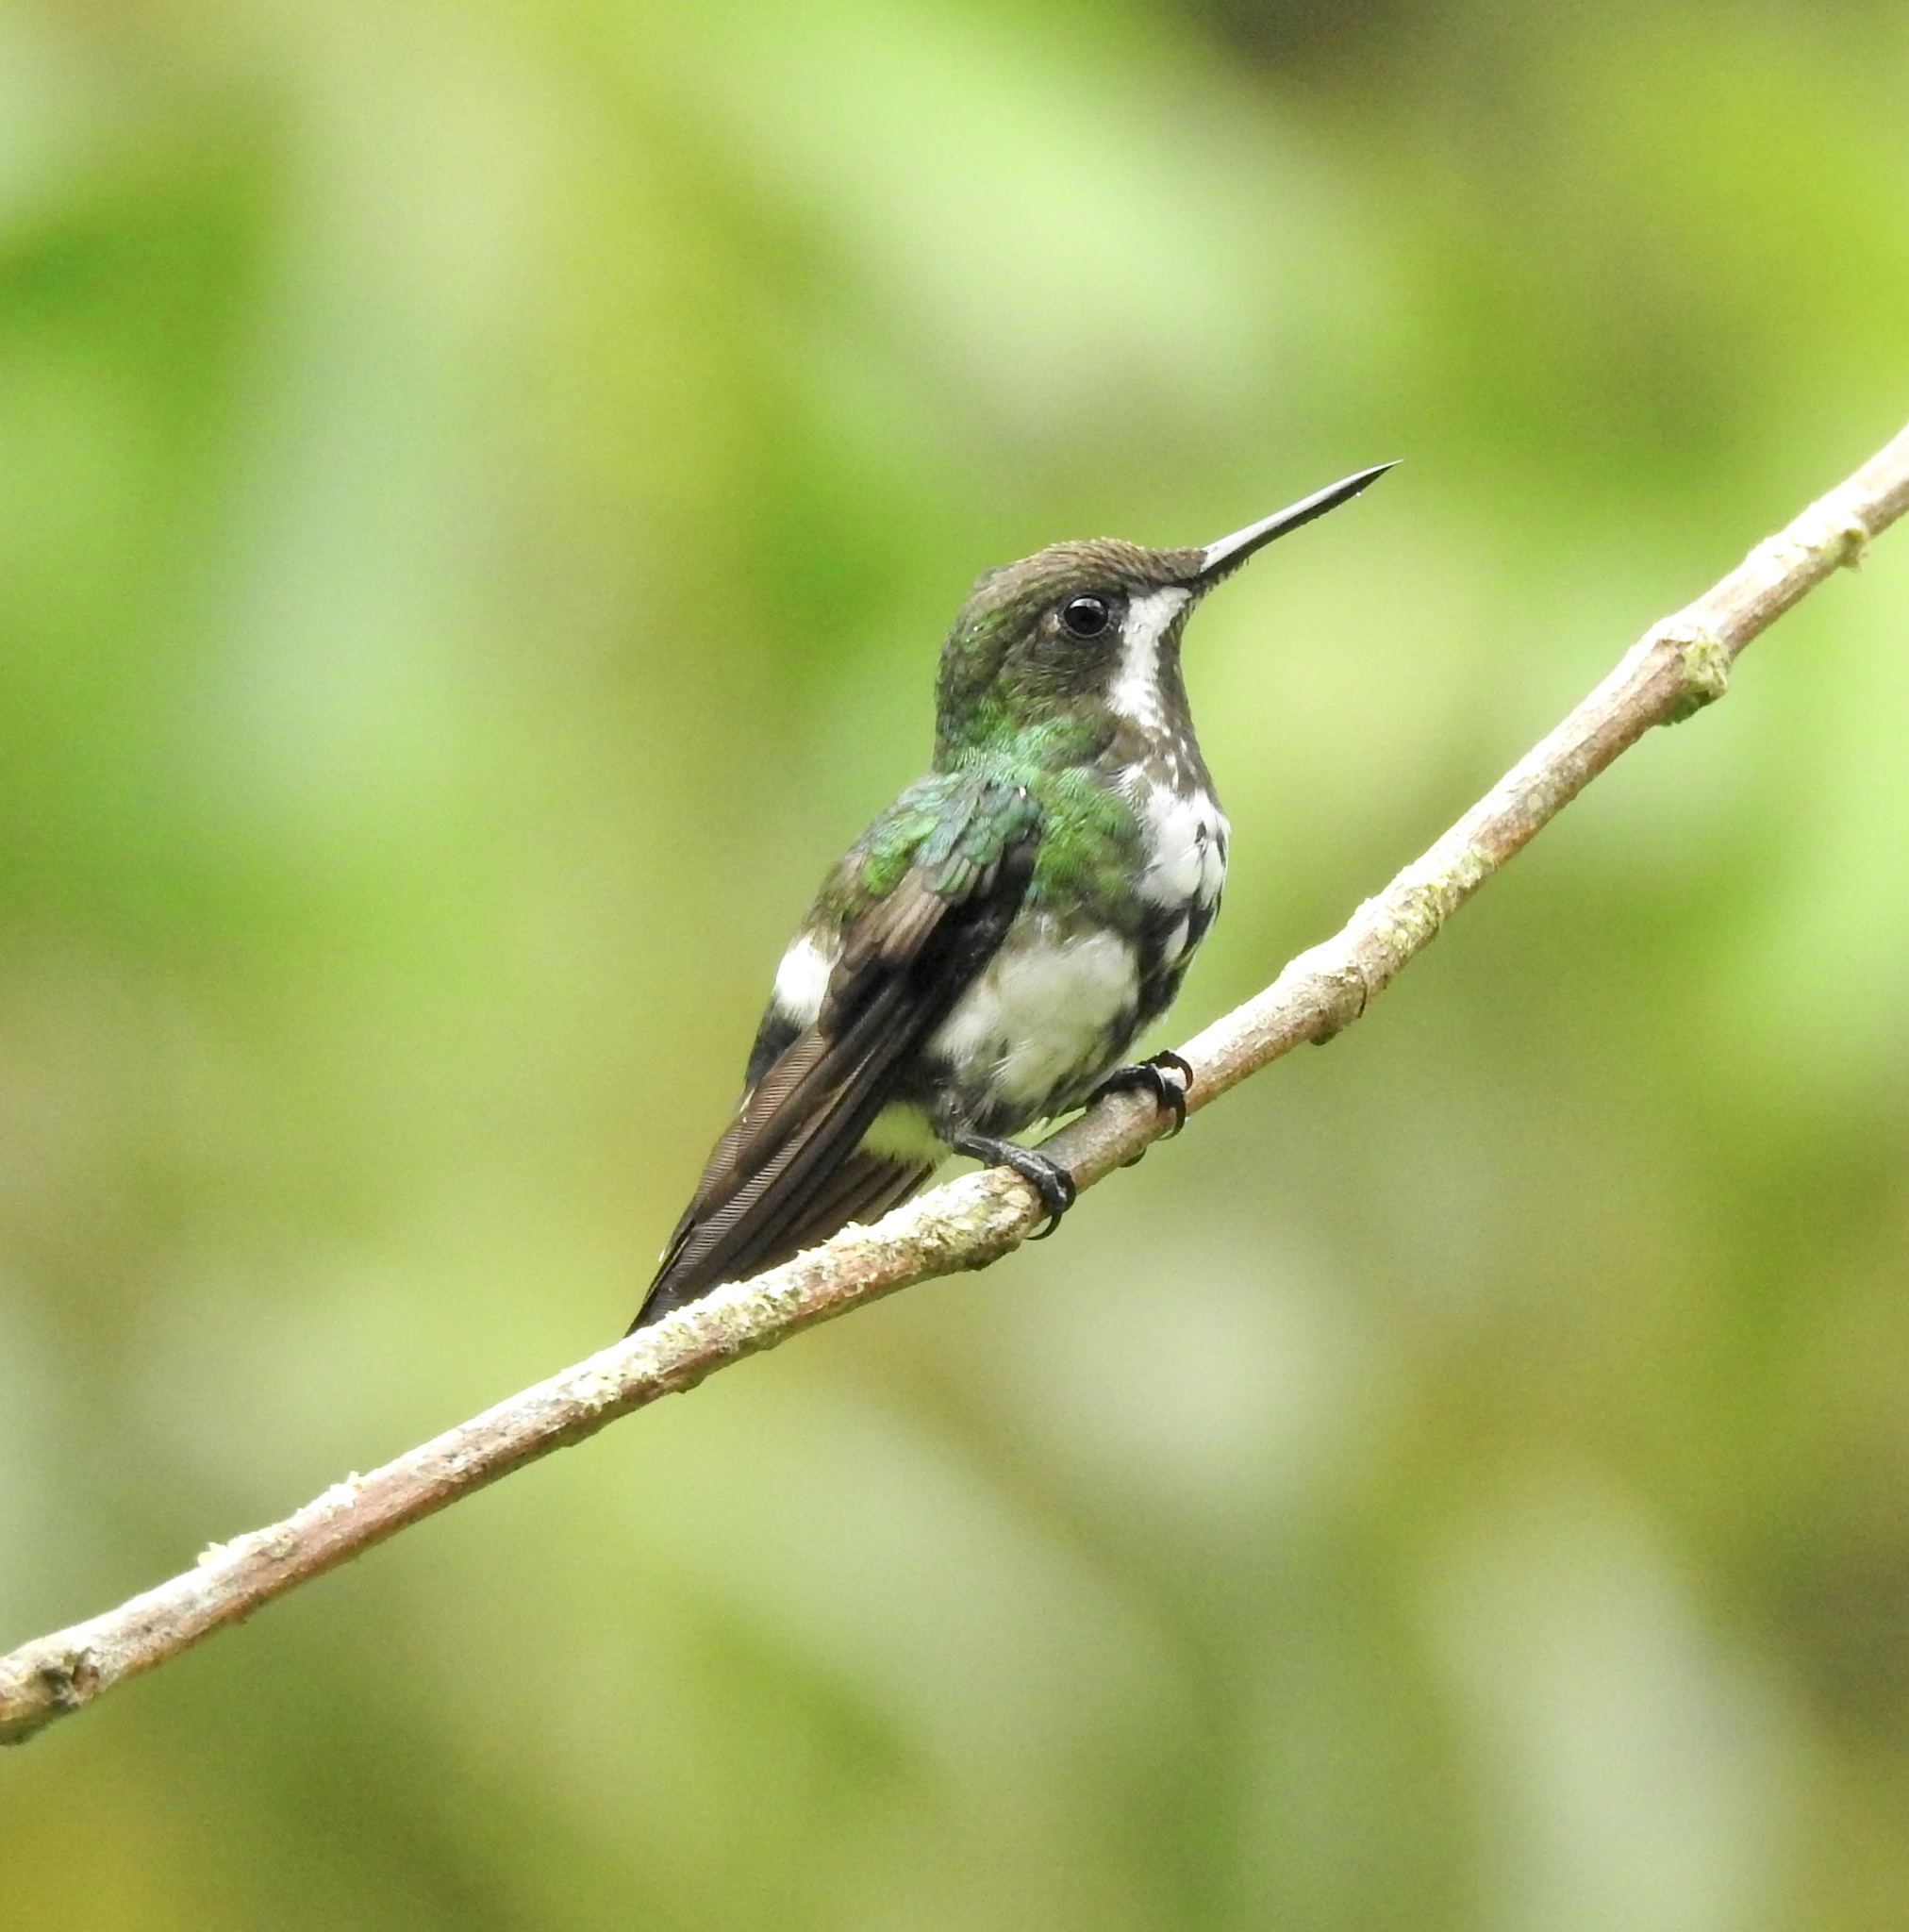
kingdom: Animalia
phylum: Chordata
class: Aves
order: Apodiformes
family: Trochilidae
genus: Discosura
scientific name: Discosura conversii
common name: Green thorntail
